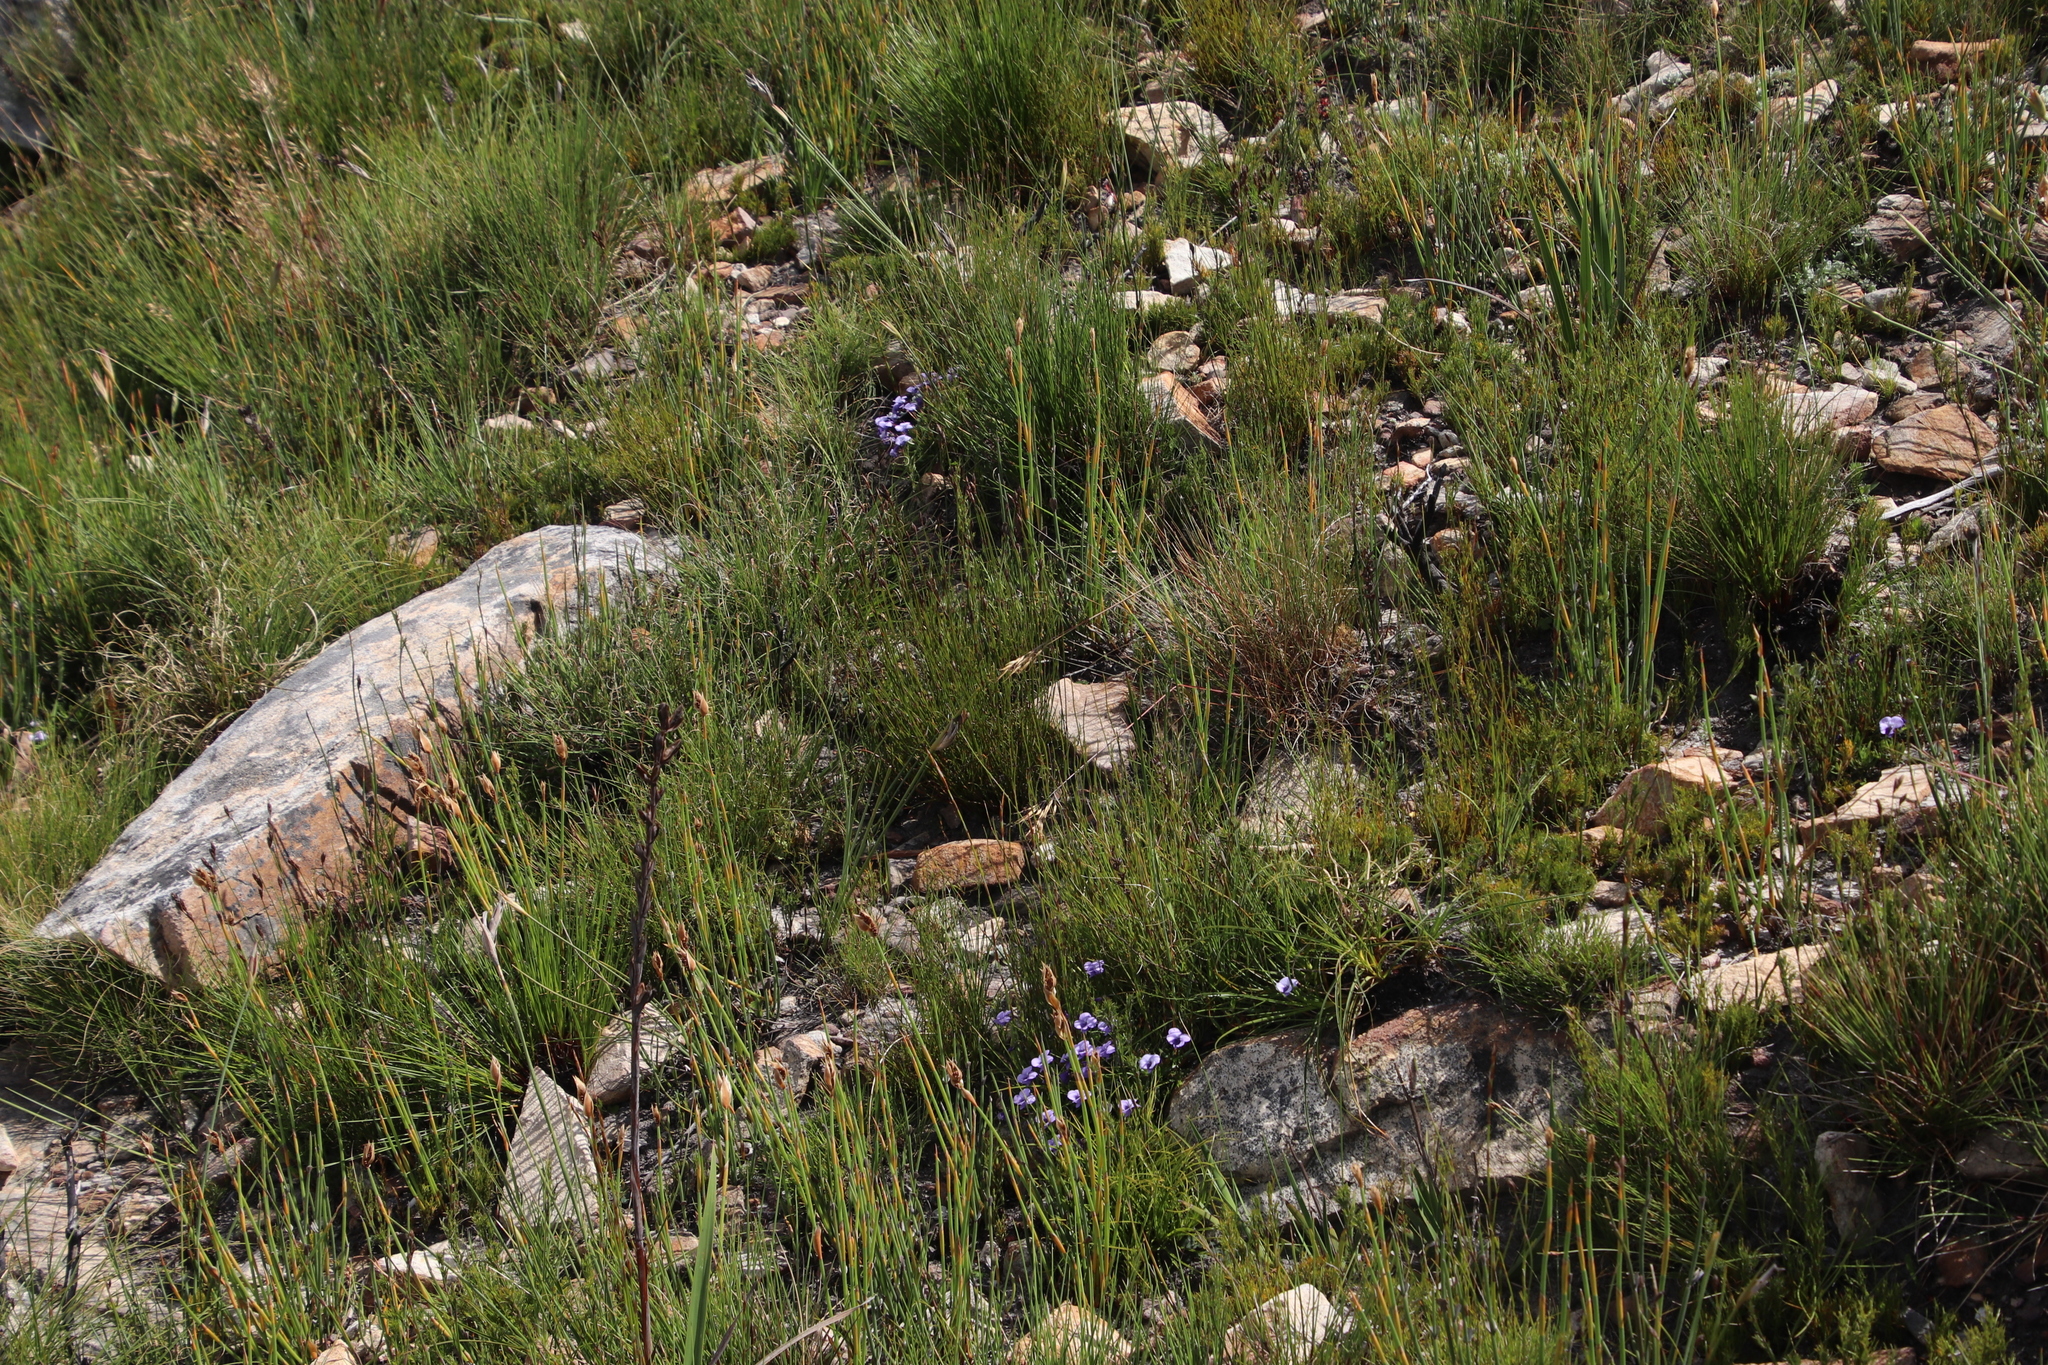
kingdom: Plantae
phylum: Tracheophyta
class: Magnoliopsida
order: Malpighiales
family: Violaceae
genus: Viola
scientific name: Viola decumbens
